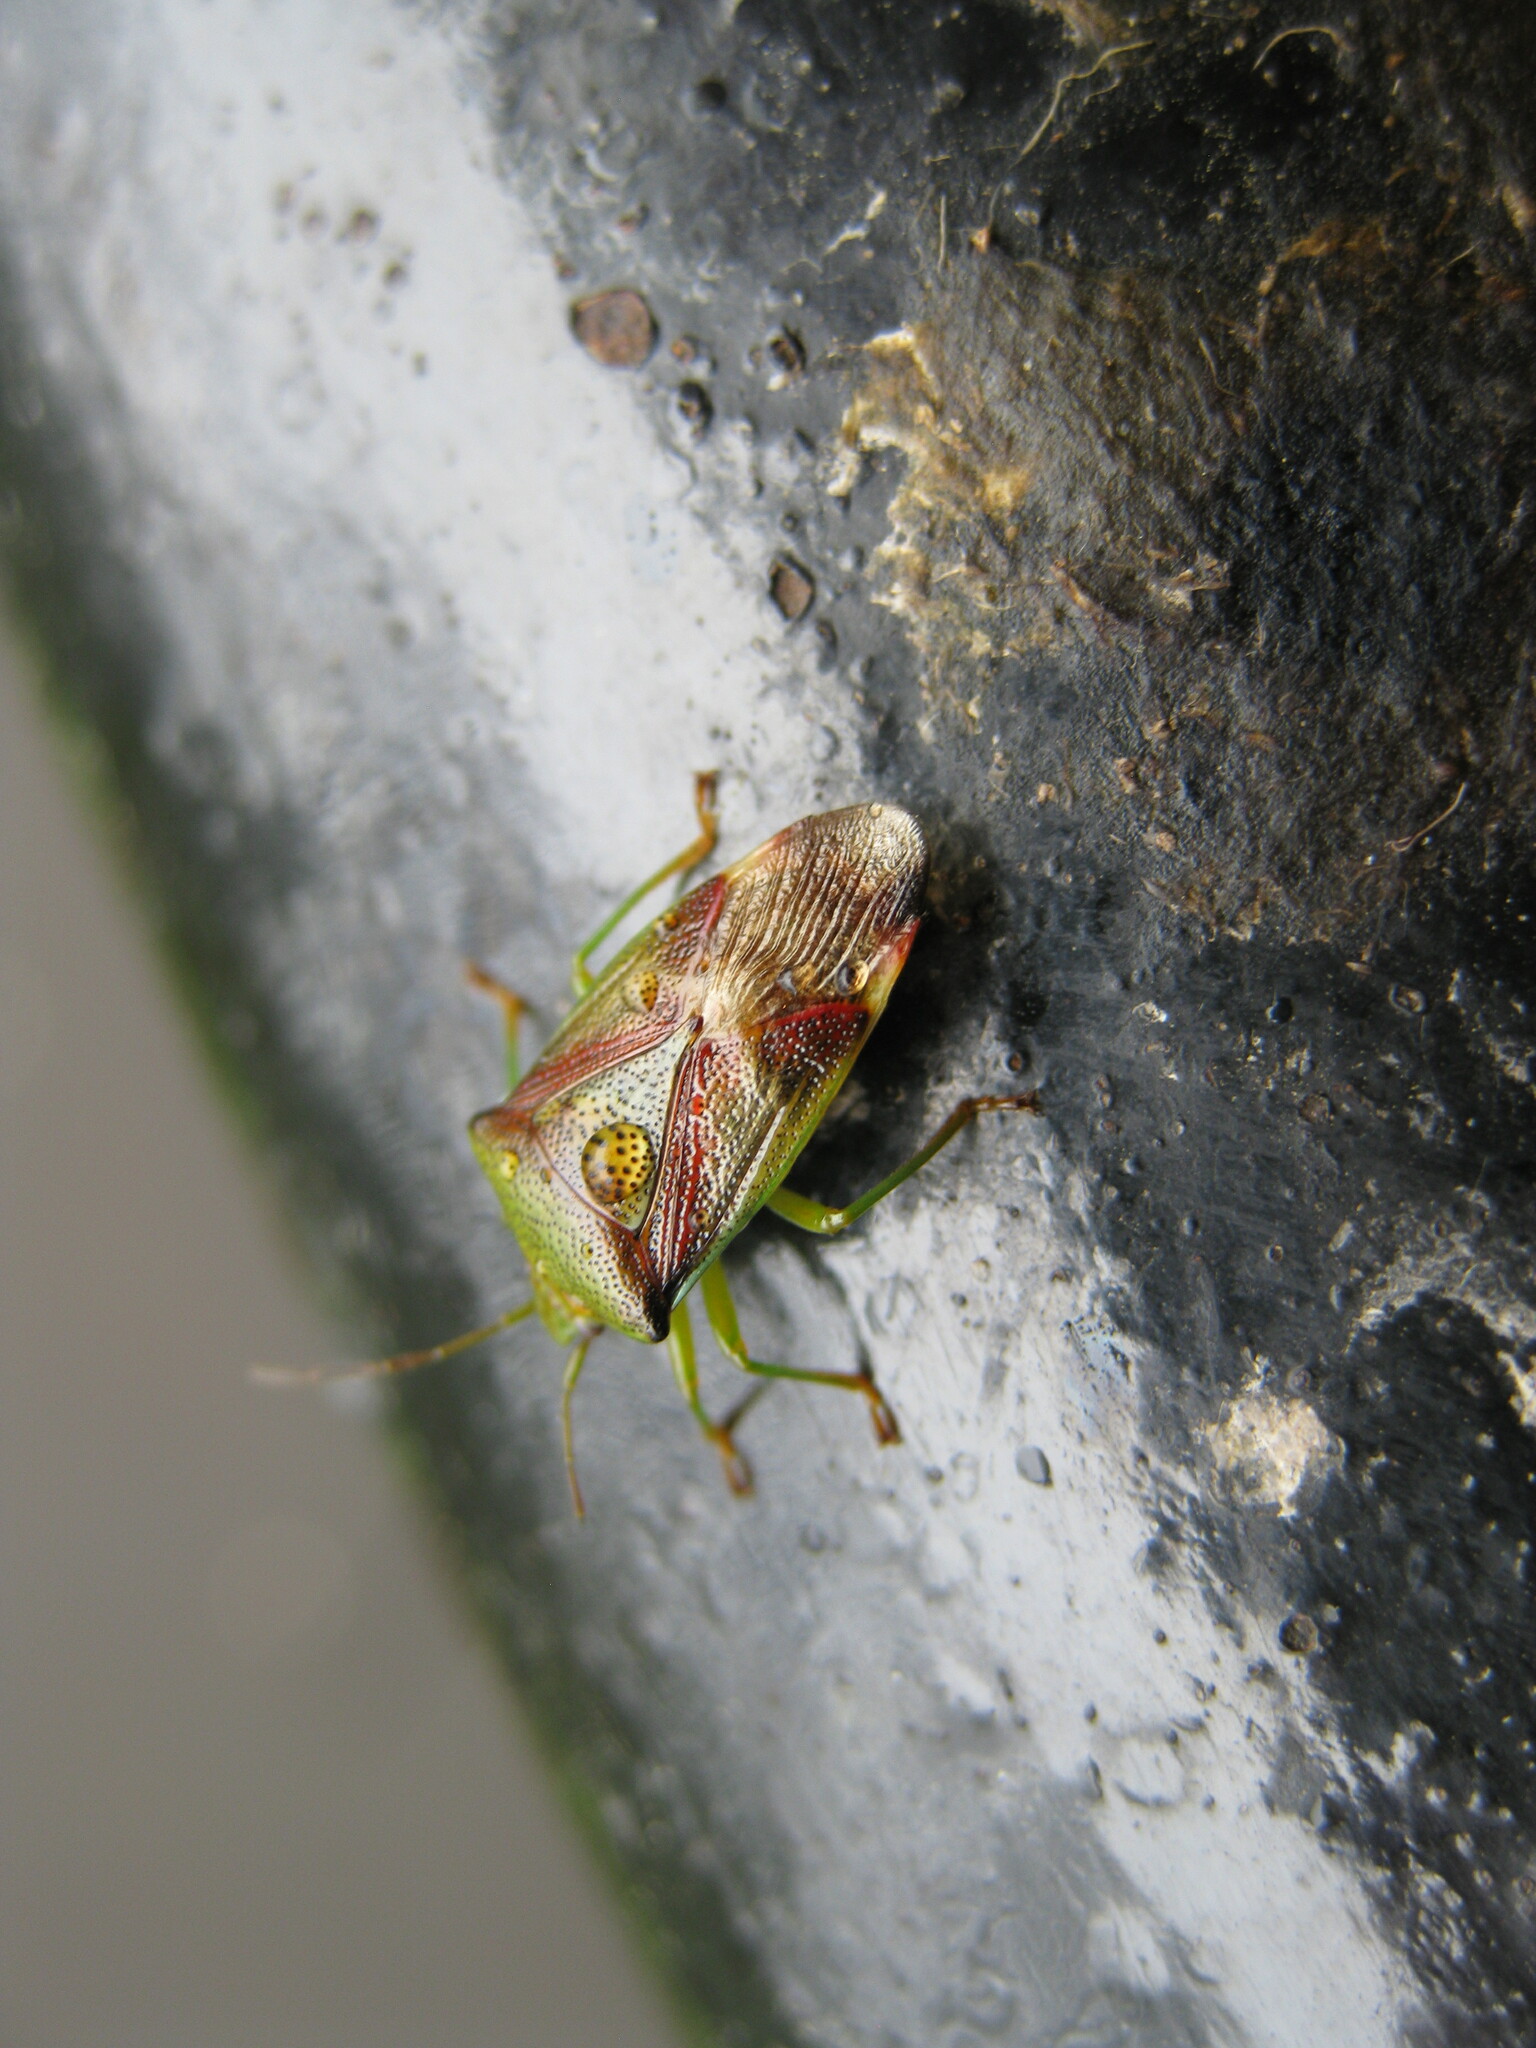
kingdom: Animalia
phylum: Arthropoda
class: Insecta
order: Hemiptera
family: Acanthosomatidae
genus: Elasmostethus
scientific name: Elasmostethus interstinctus
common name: Birch shieldbug
